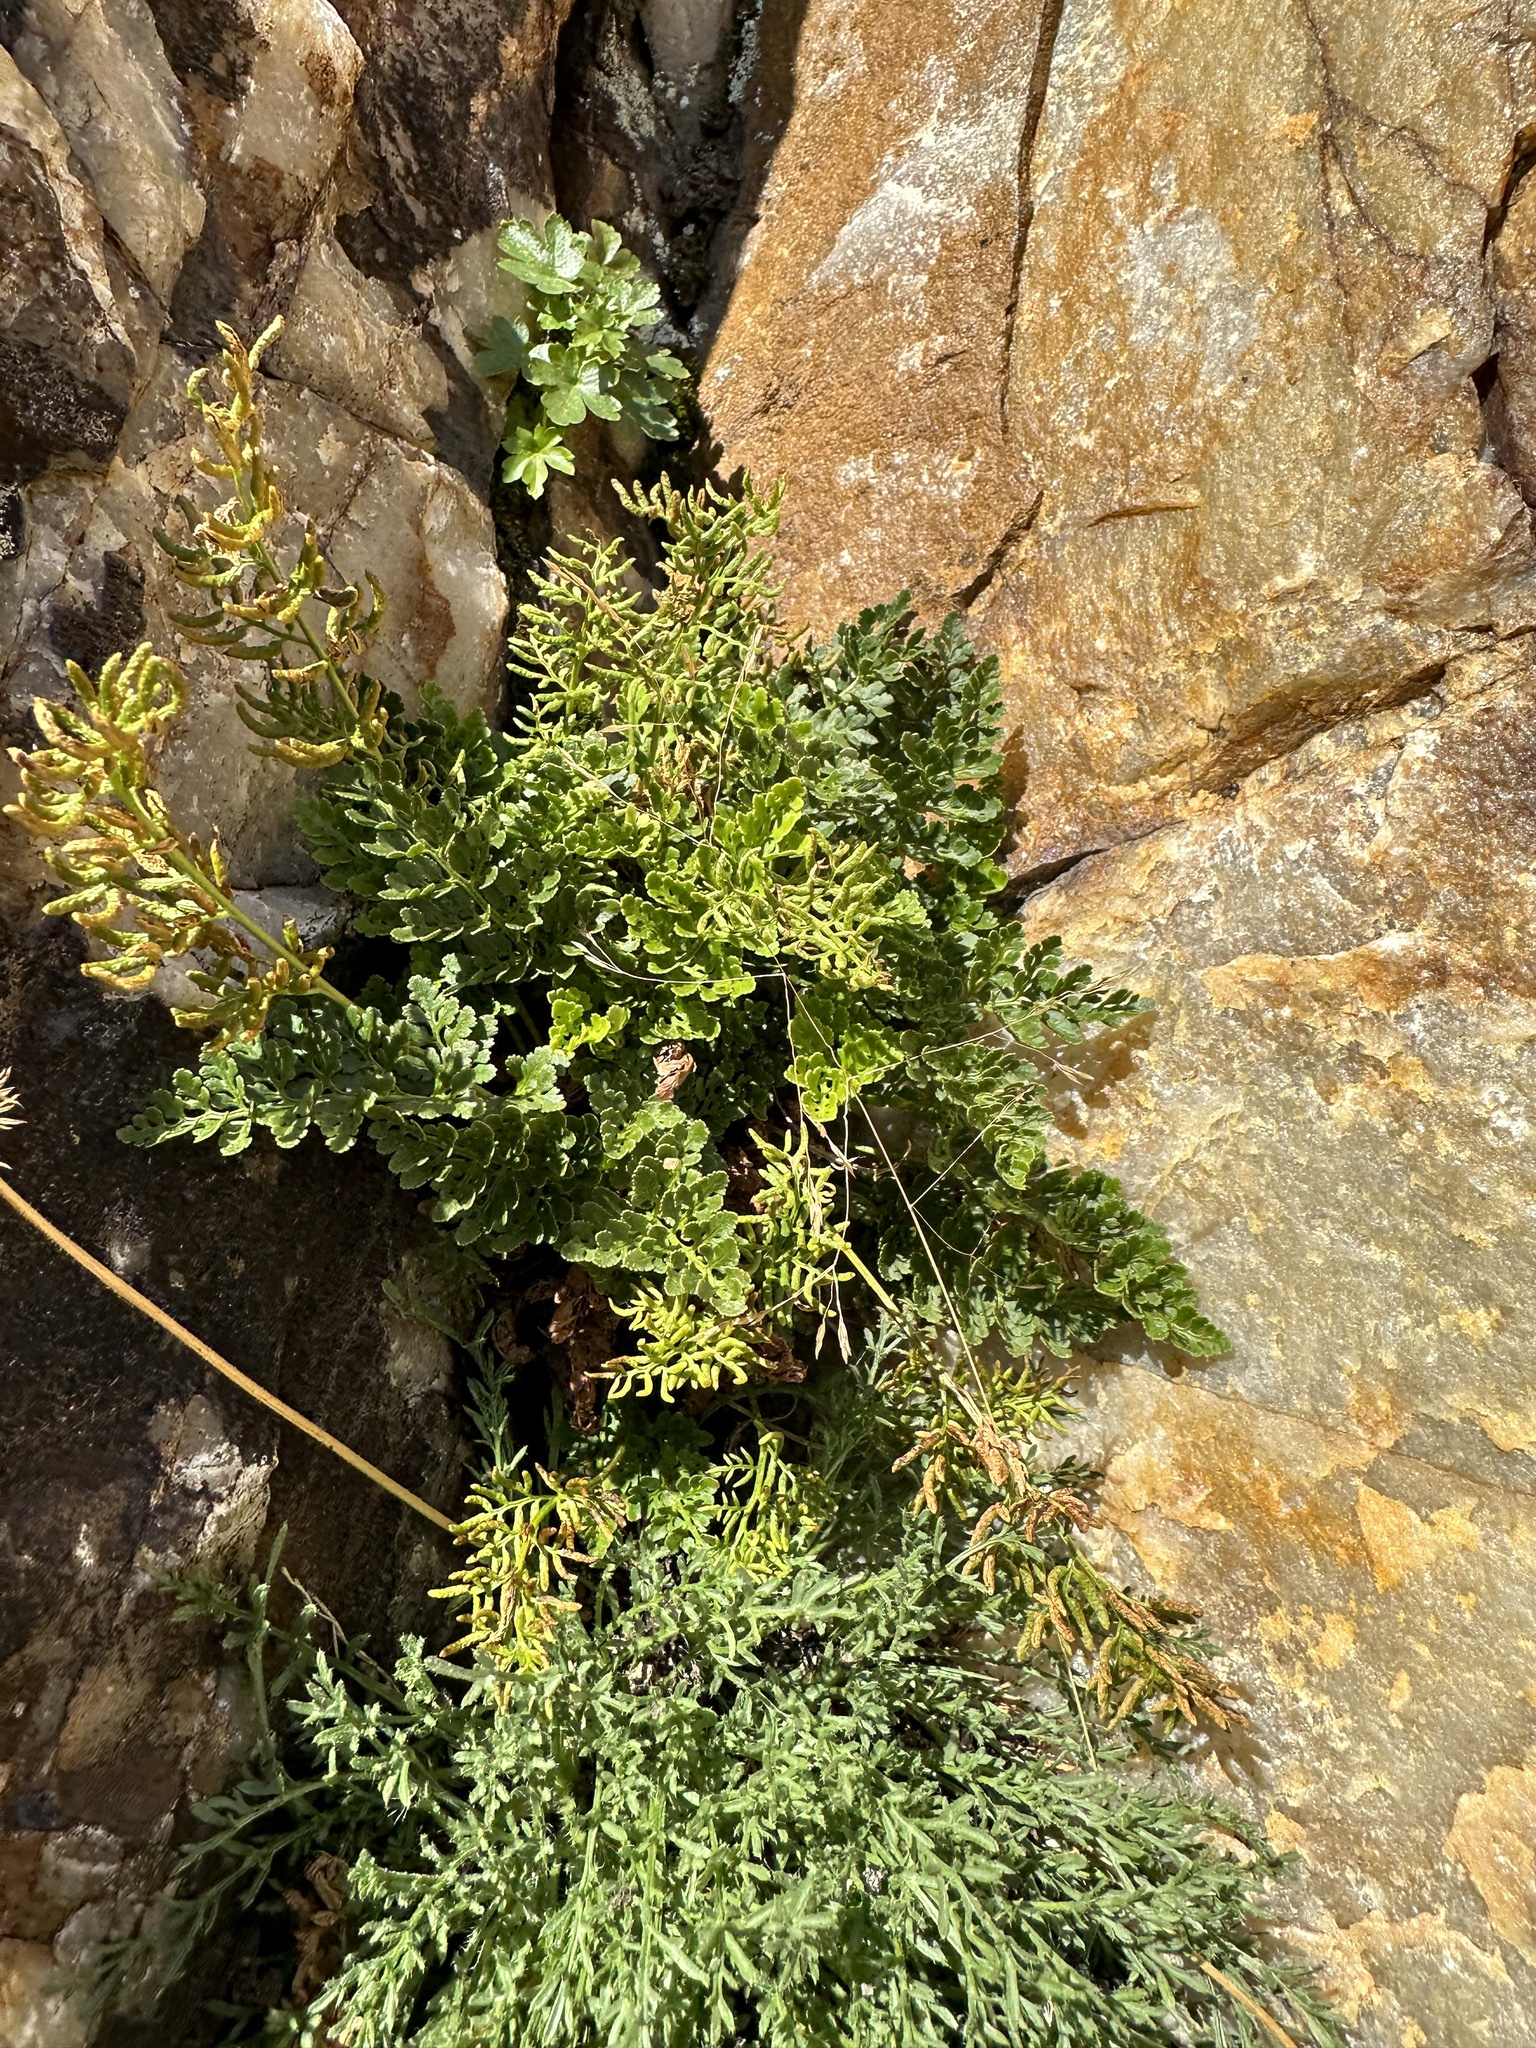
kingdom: Plantae
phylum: Tracheophyta
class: Polypodiopsida
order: Polypodiales
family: Pteridaceae
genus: Cryptogramma
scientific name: Cryptogramma acrostichoides
